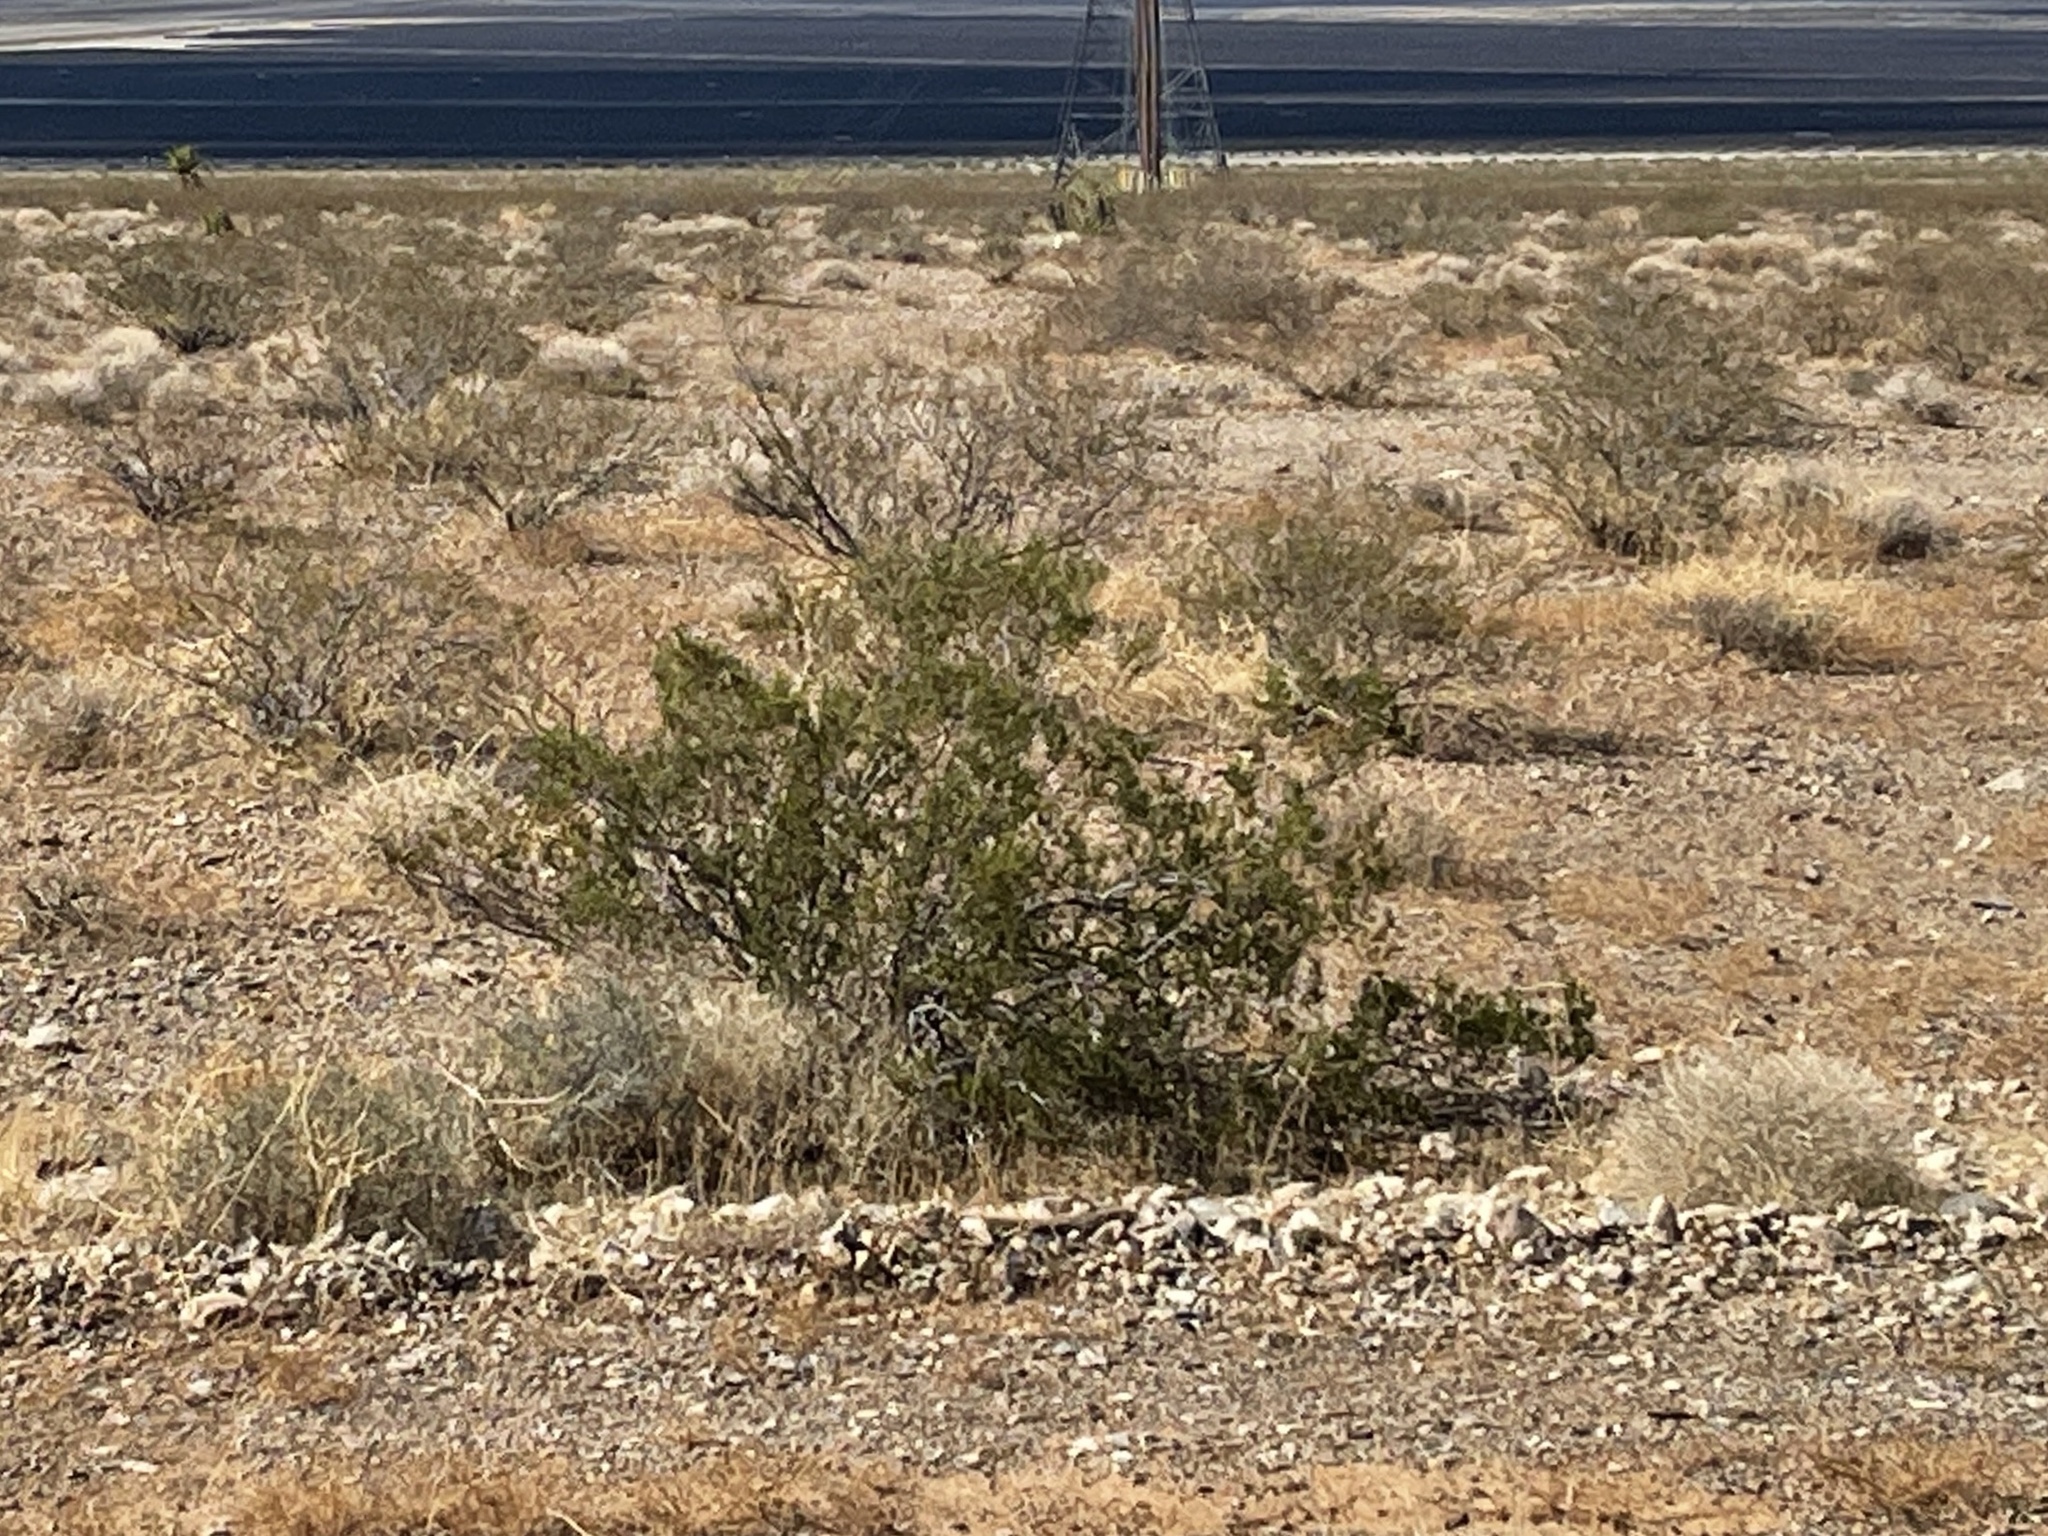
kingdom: Plantae
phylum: Tracheophyta
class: Magnoliopsida
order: Zygophyllales
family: Zygophyllaceae
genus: Larrea
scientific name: Larrea tridentata
